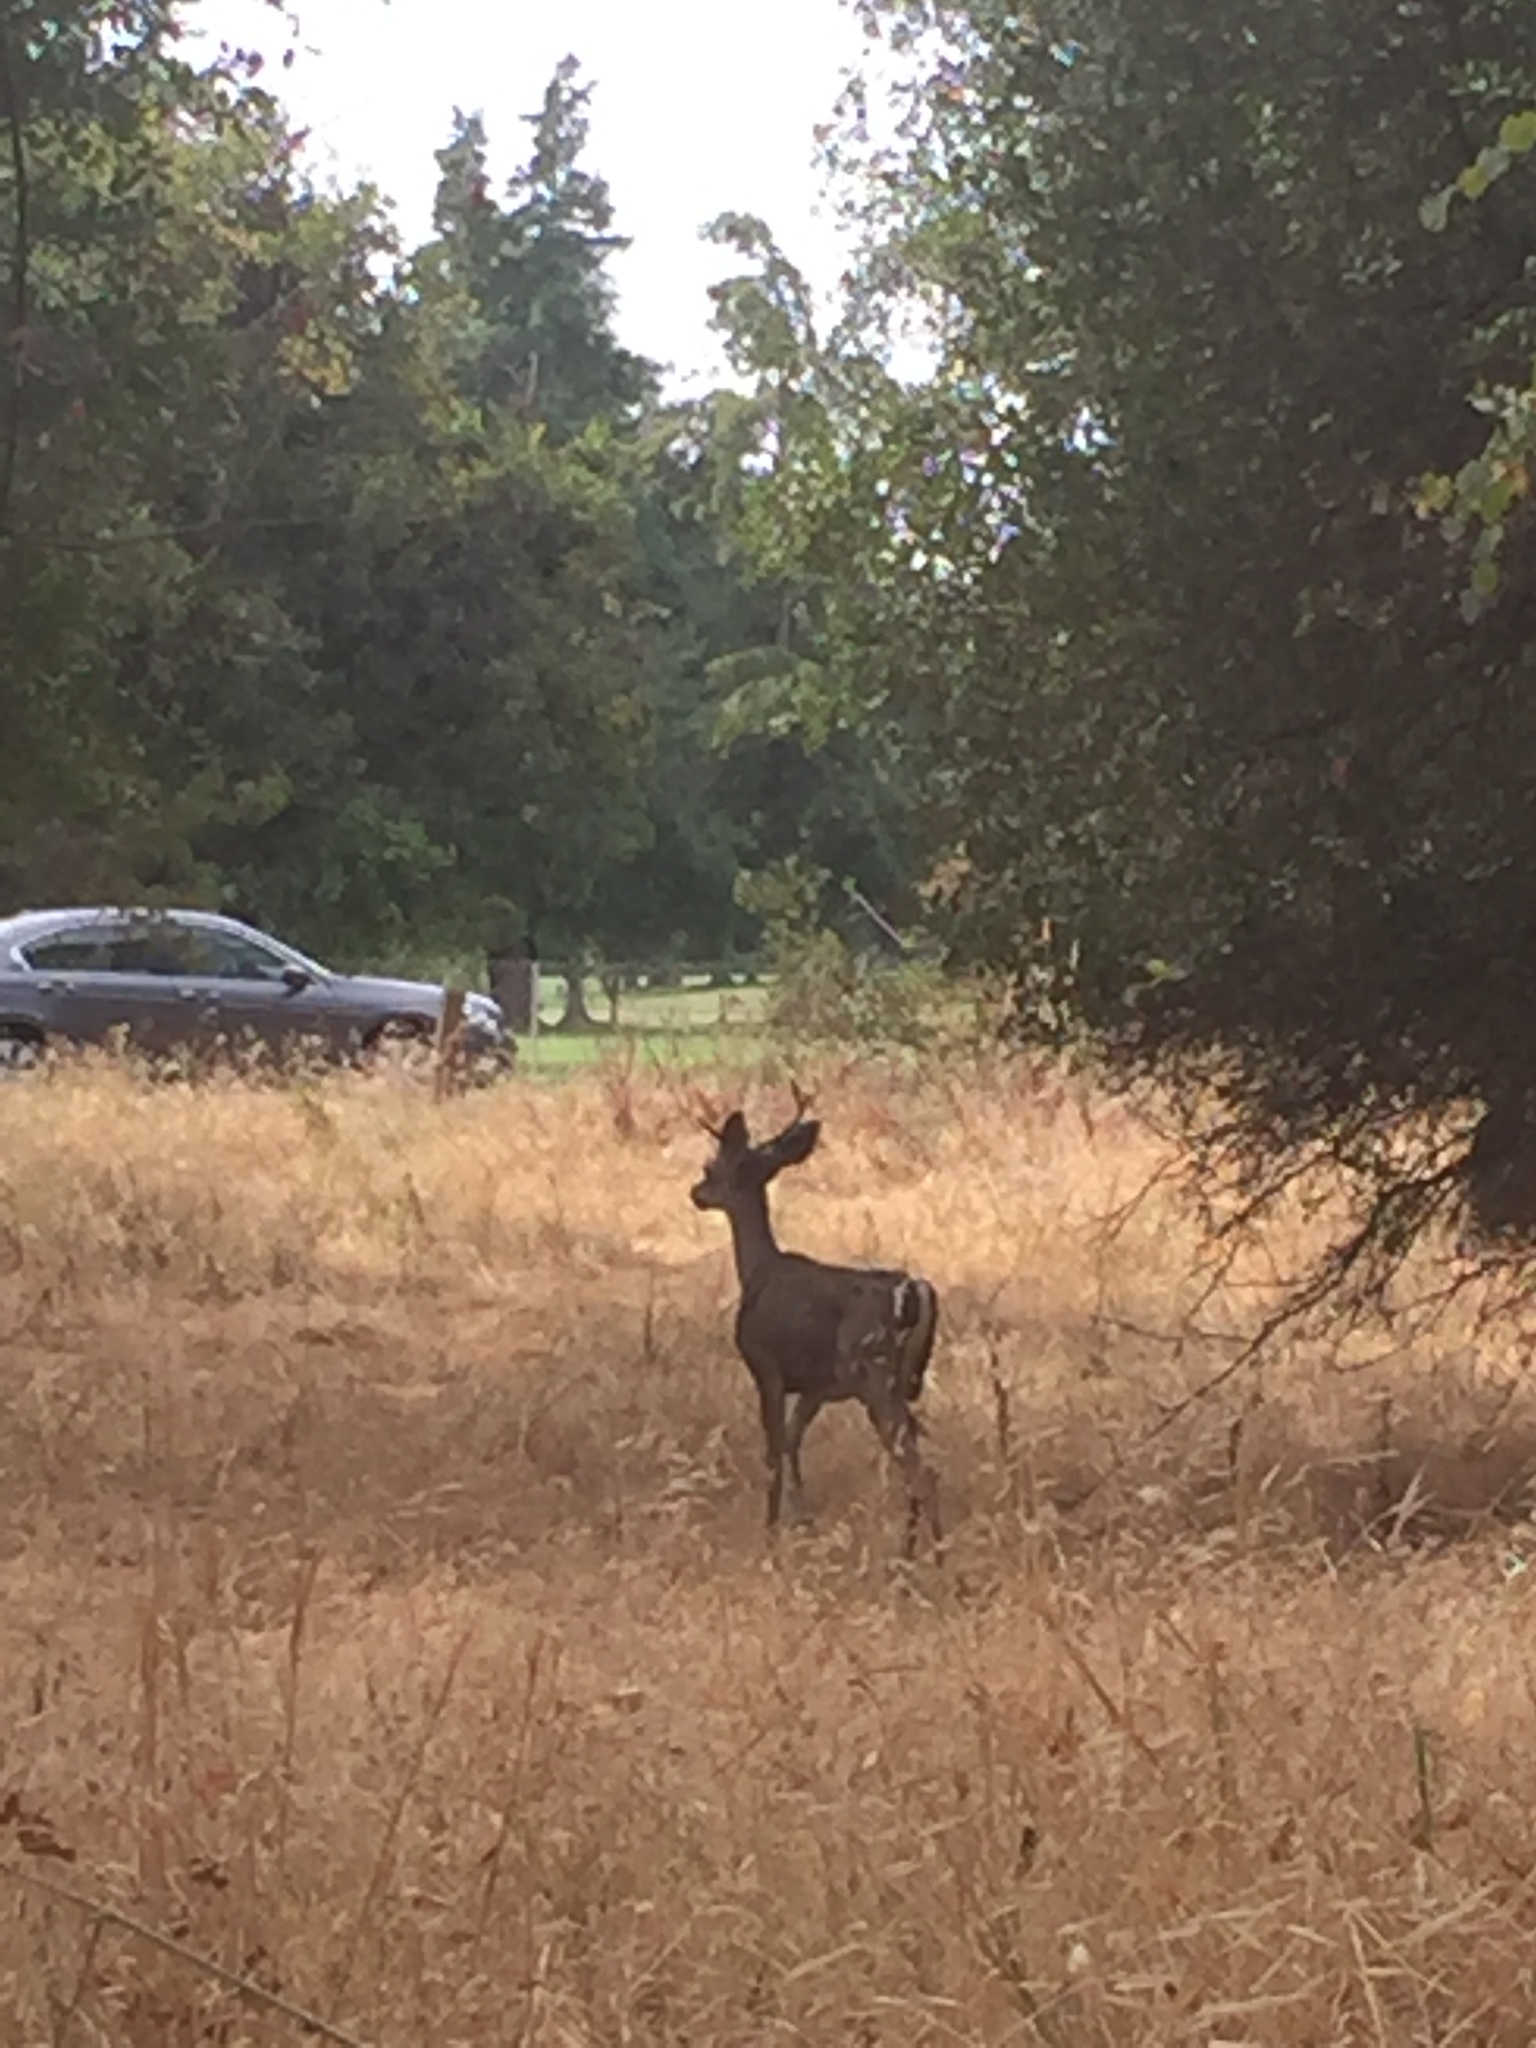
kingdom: Animalia
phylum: Chordata
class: Mammalia
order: Artiodactyla
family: Cervidae
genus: Odocoileus
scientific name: Odocoileus hemionus
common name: Mule deer
